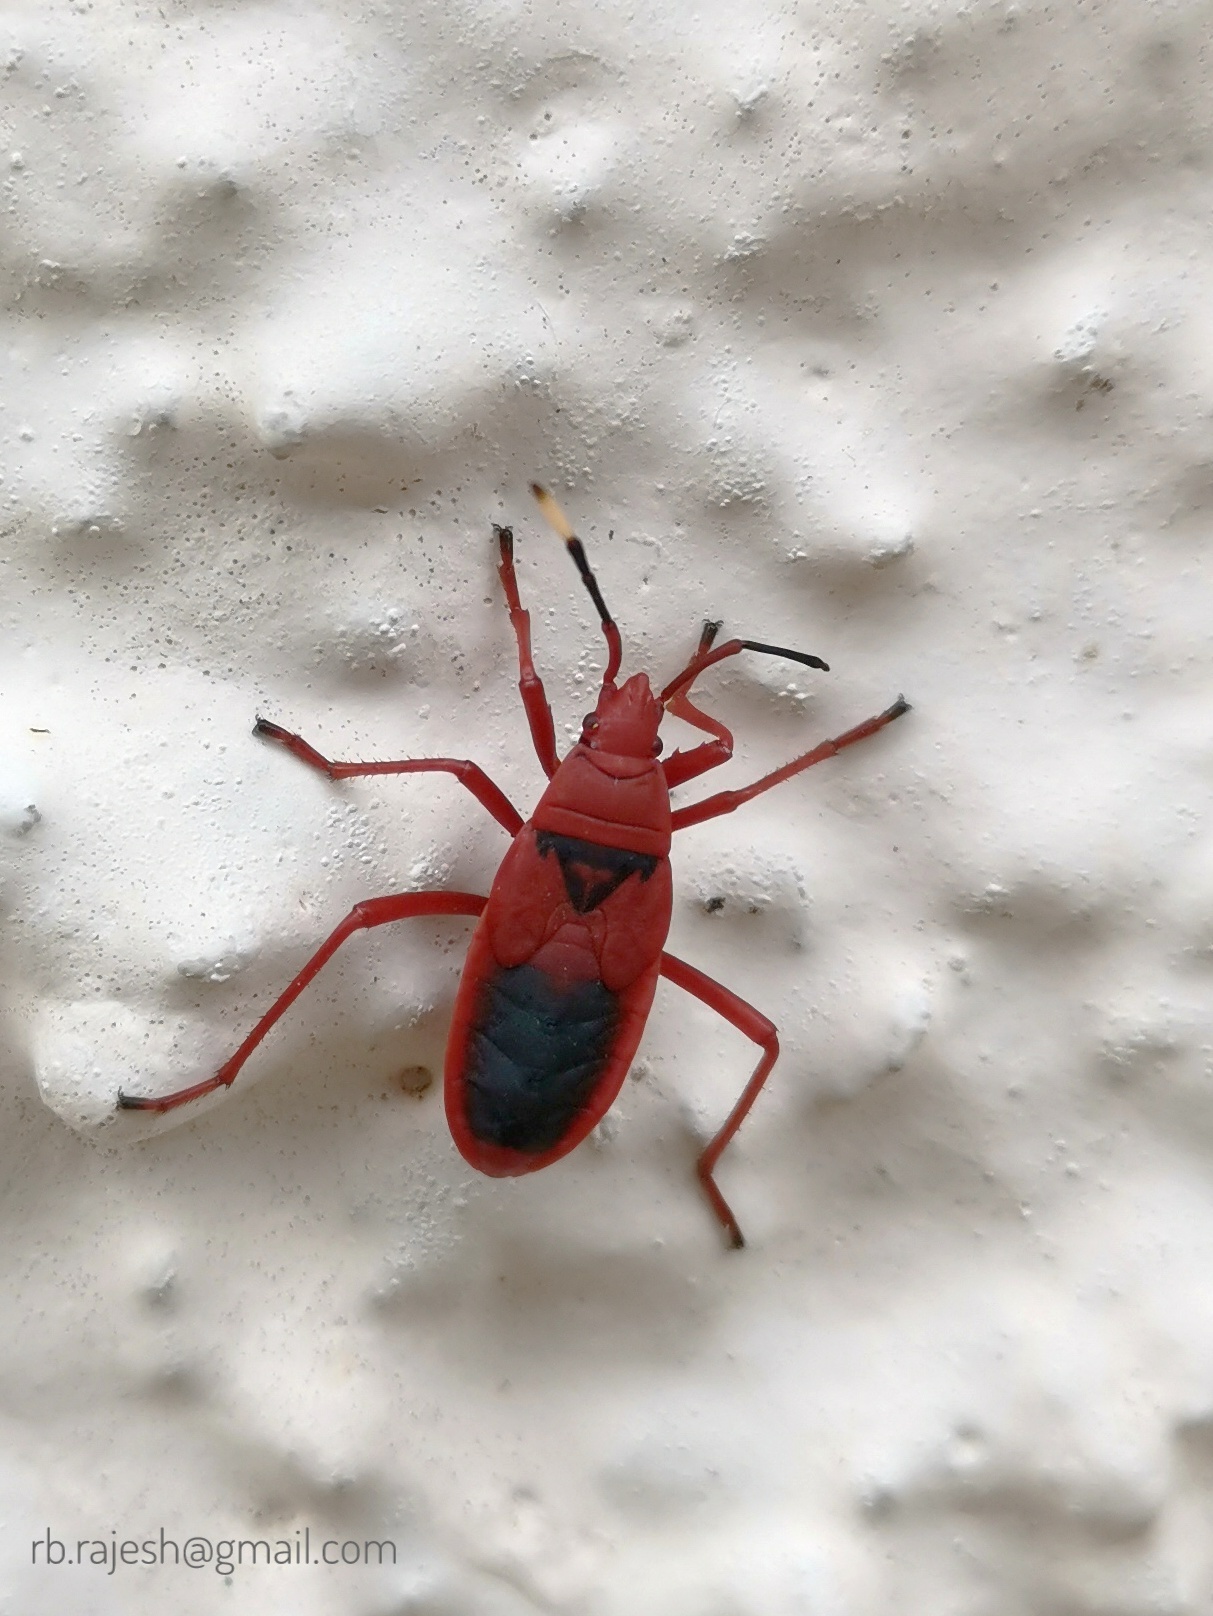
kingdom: Animalia
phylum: Arthropoda
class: Insecta
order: Hemiptera
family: Pyrrhocoridae
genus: Probergrothius
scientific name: Probergrothius
